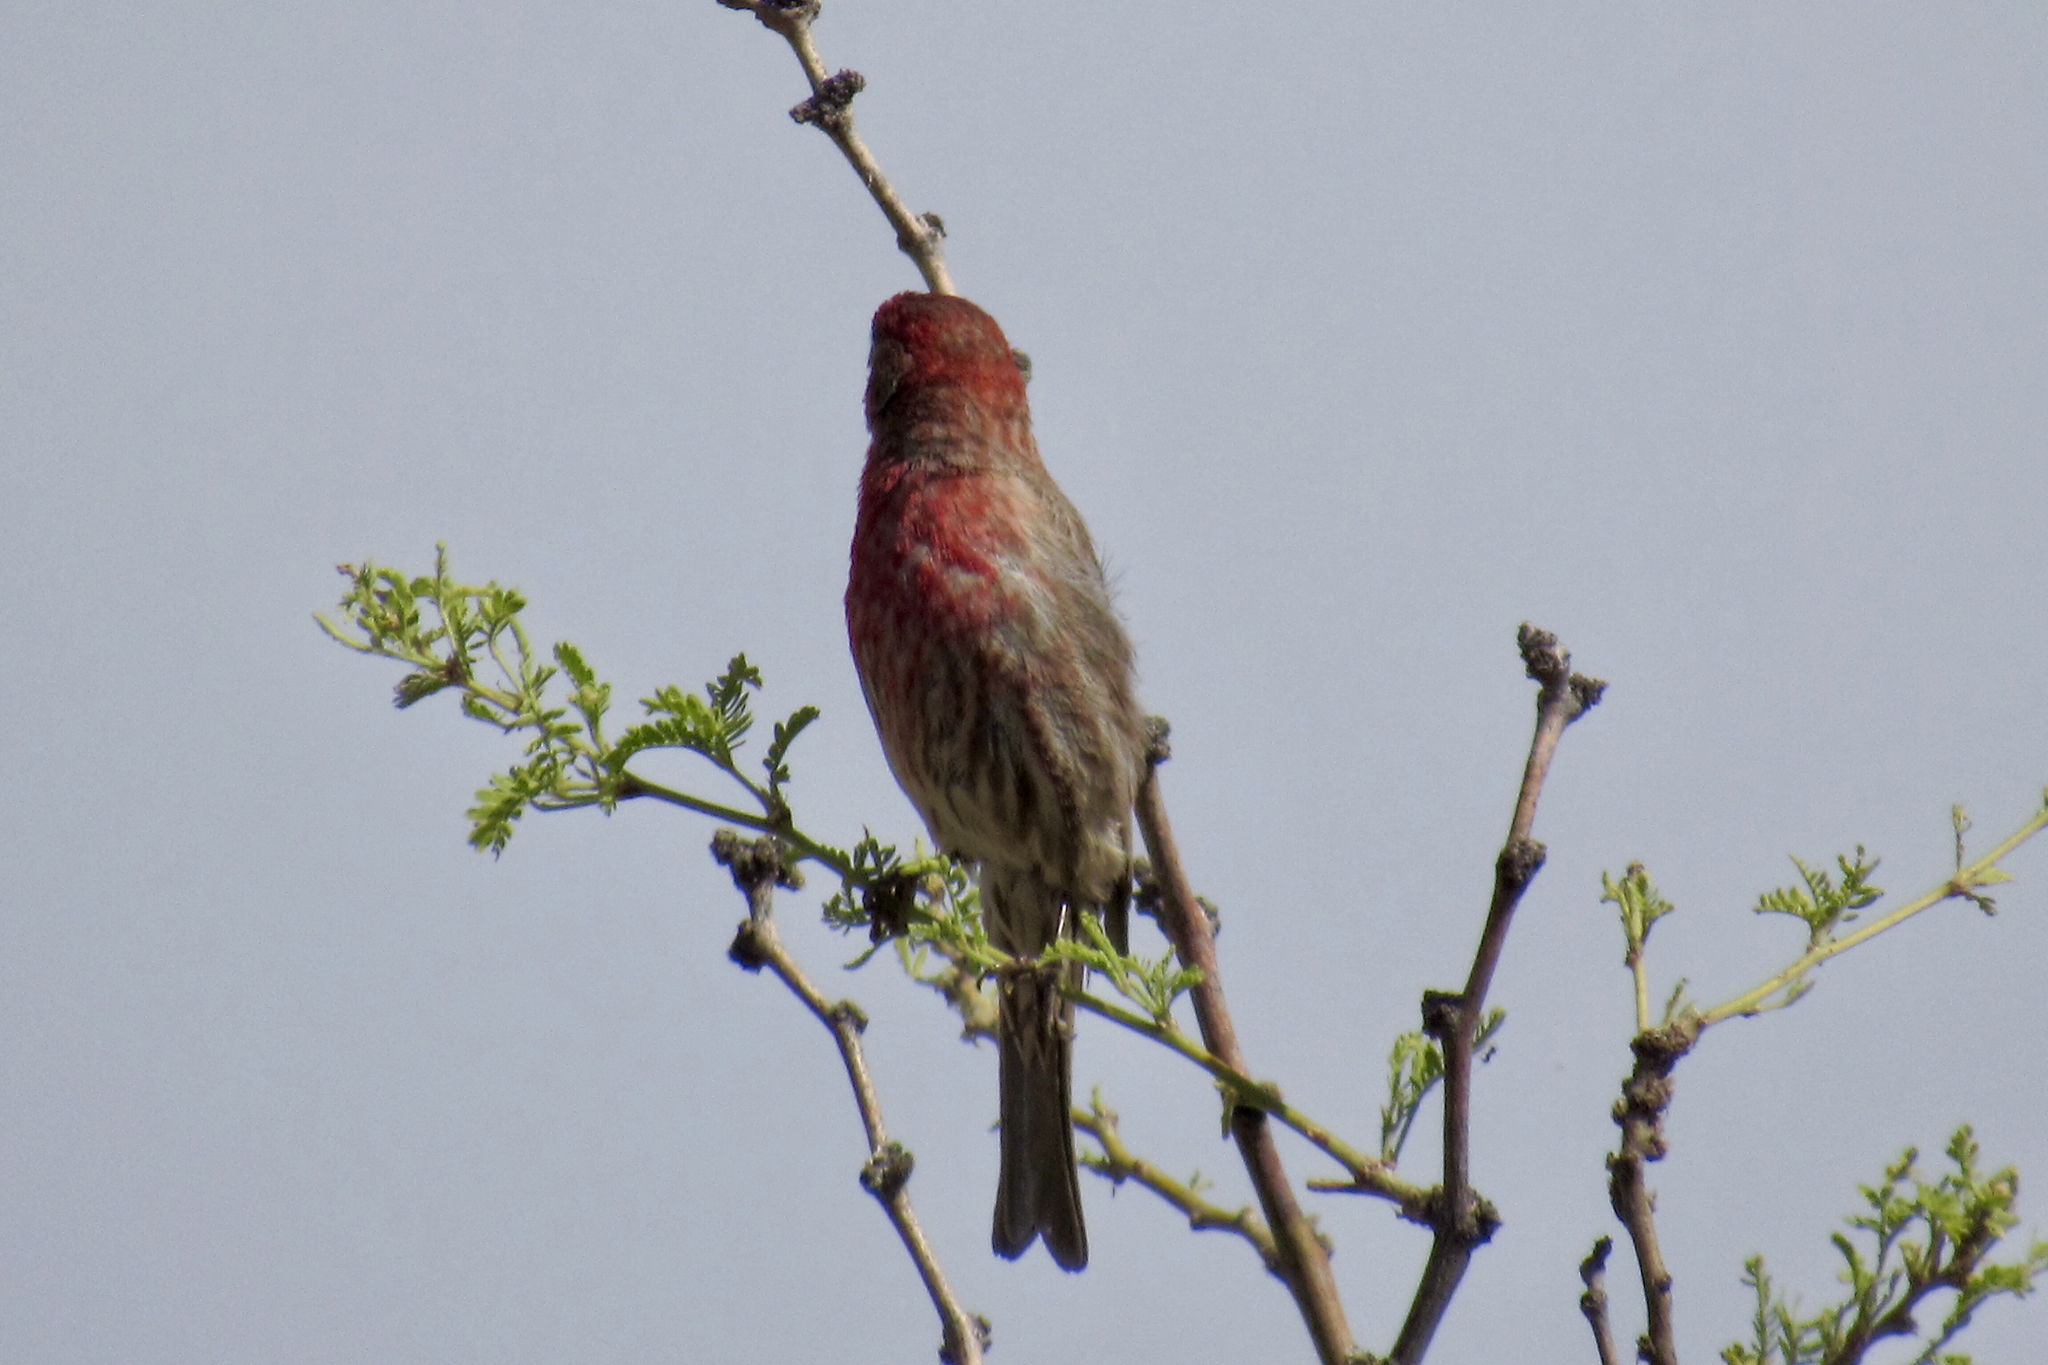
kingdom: Animalia
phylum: Chordata
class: Aves
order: Passeriformes
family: Fringillidae
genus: Haemorhous
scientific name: Haemorhous mexicanus
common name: House finch
